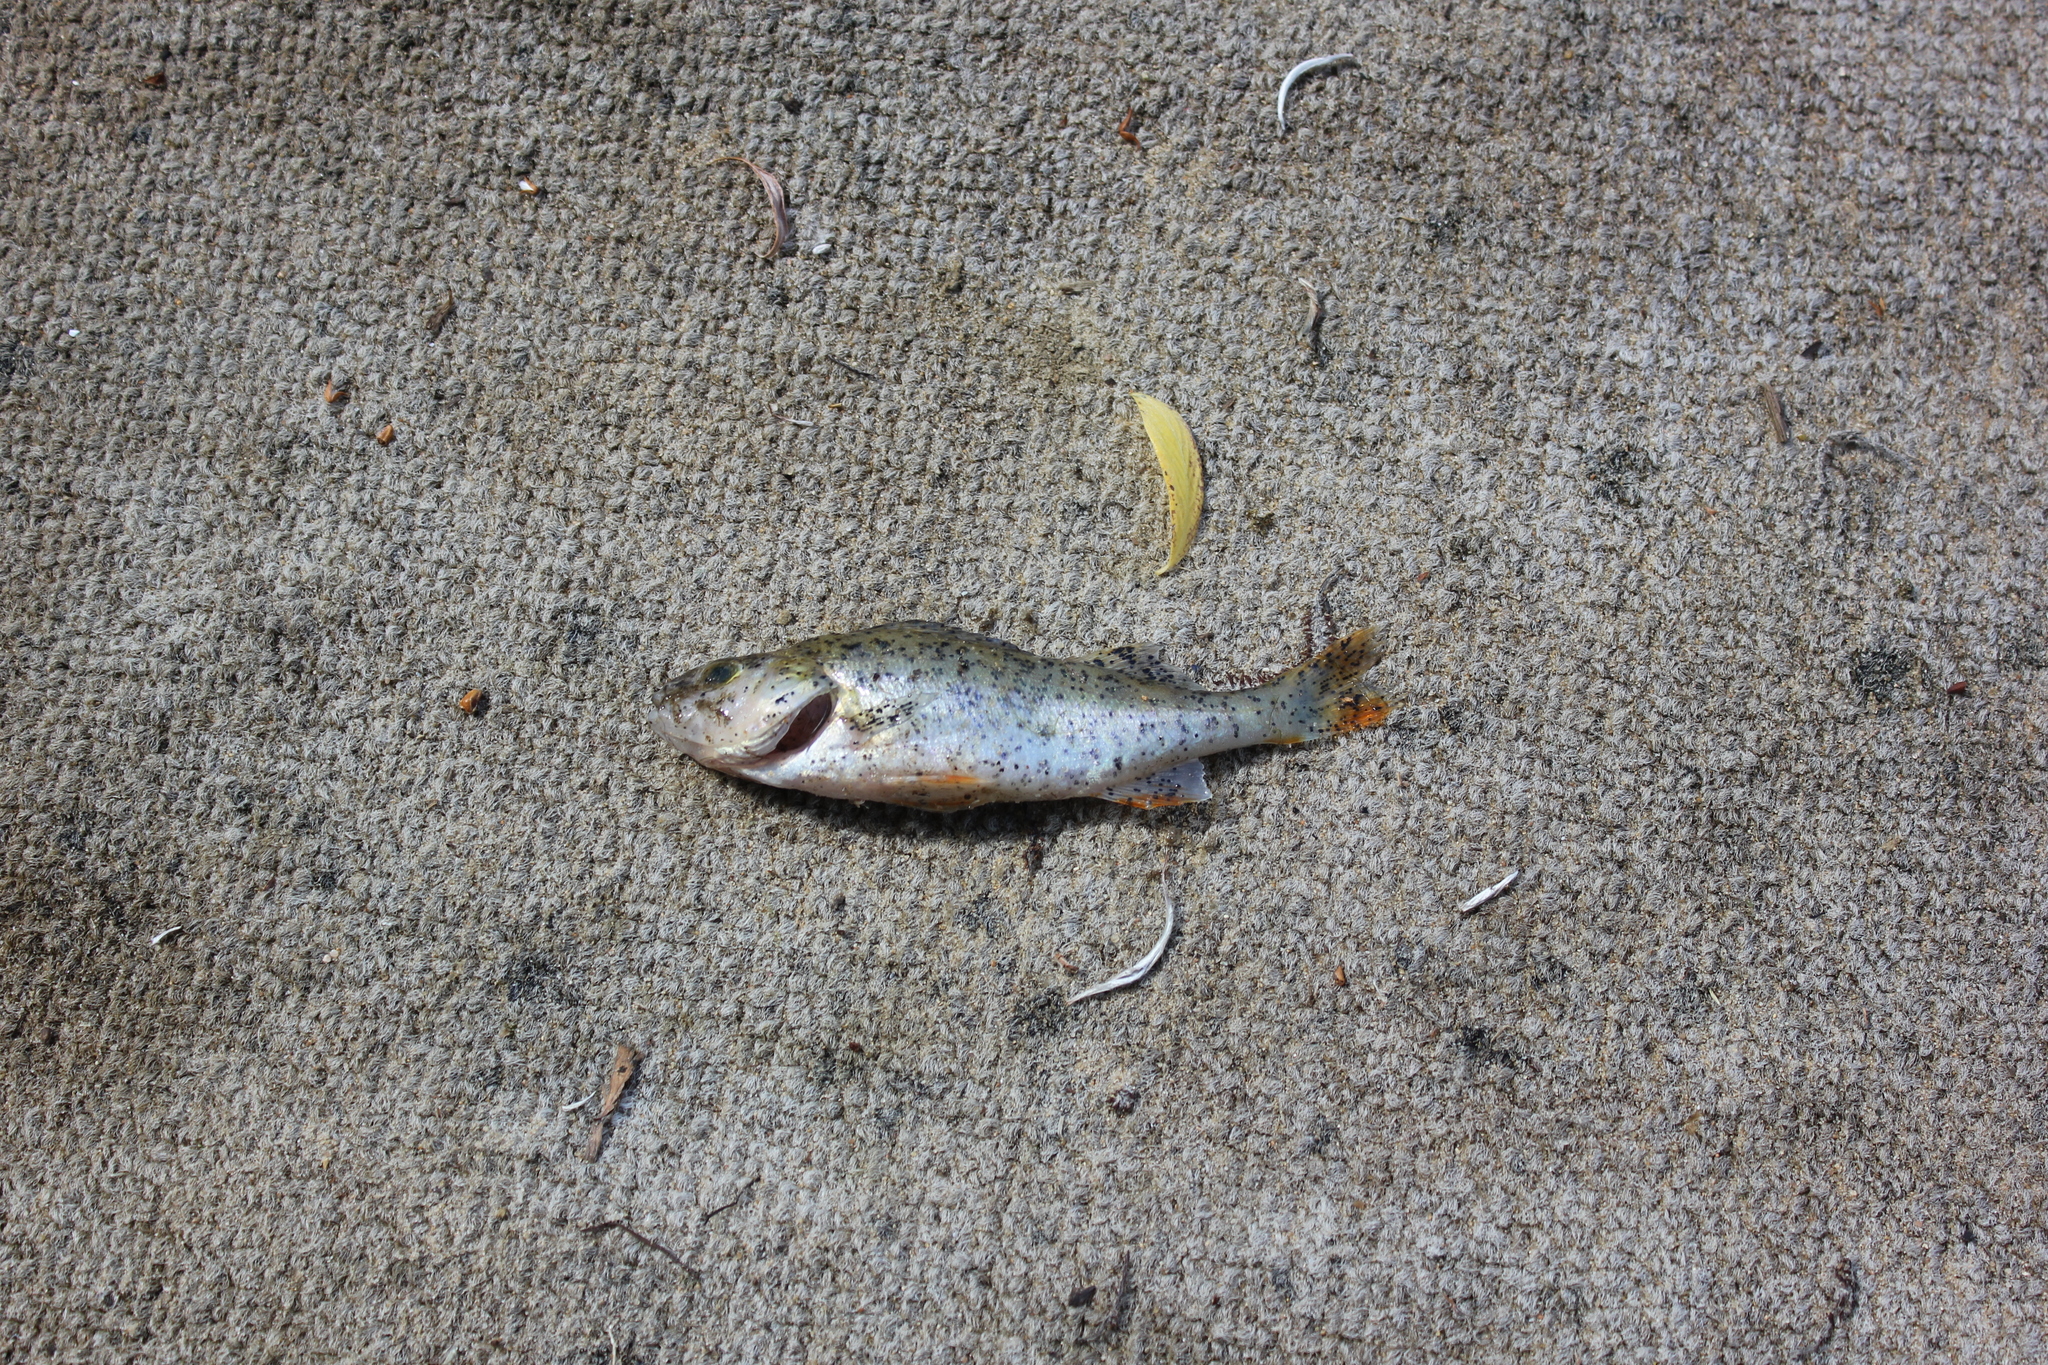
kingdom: Animalia
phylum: Chordata
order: Perciformes
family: Percidae
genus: Perca
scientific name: Perca fluviatilis
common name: Perch
